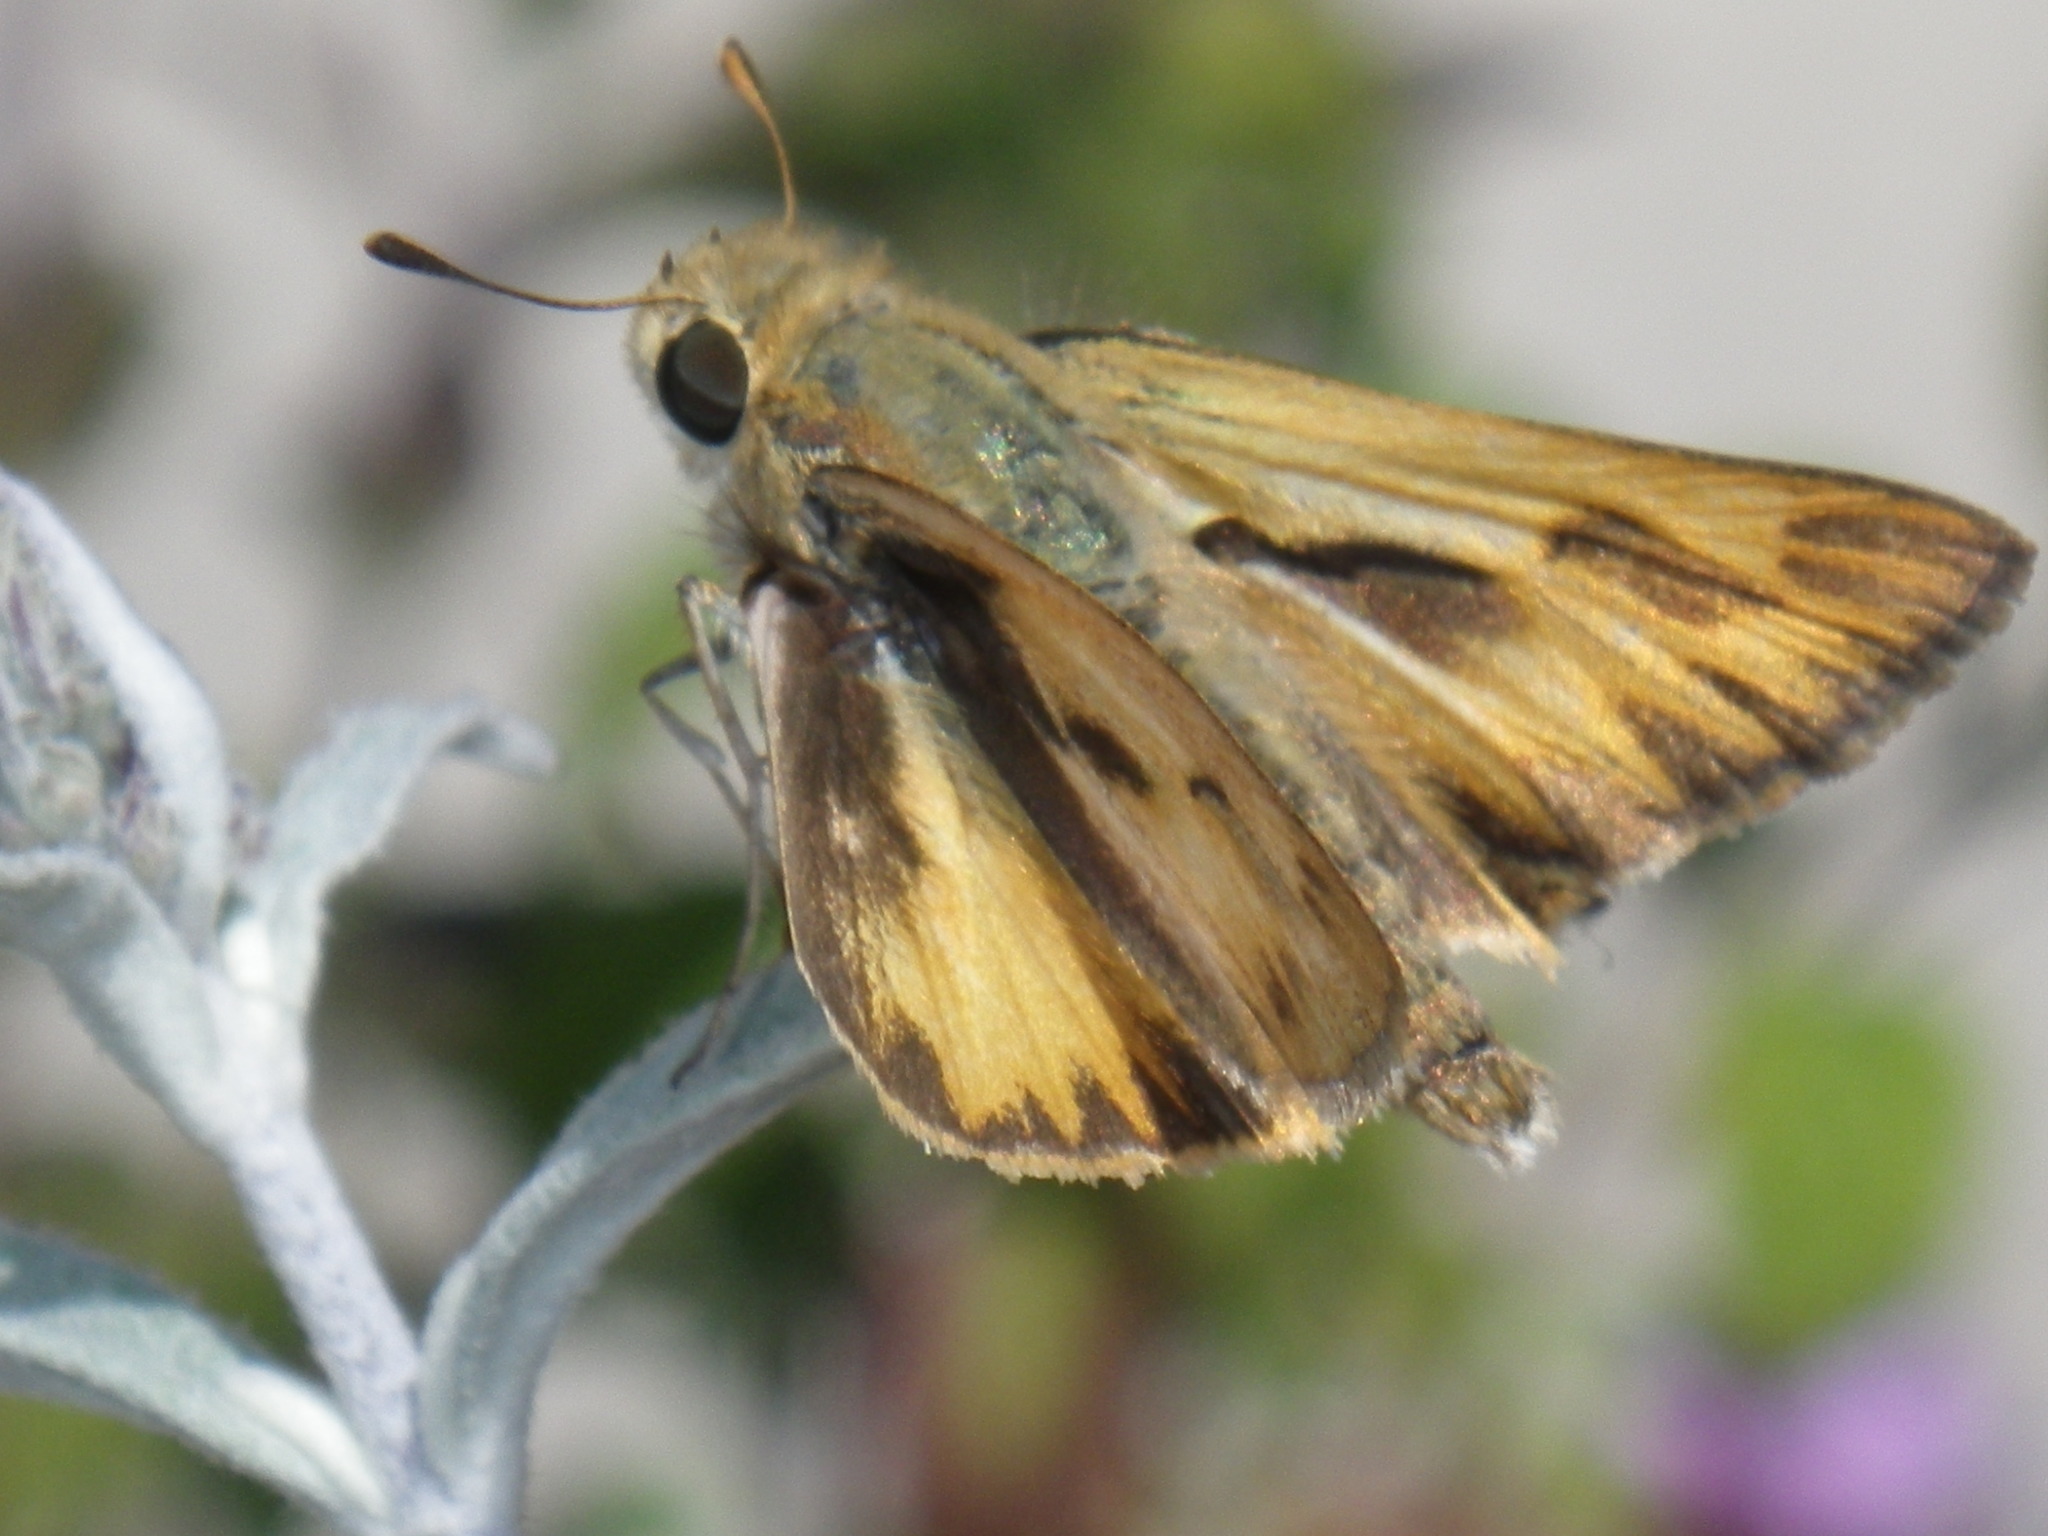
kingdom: Animalia
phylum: Arthropoda
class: Insecta
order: Lepidoptera
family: Hesperiidae
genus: Hylephila
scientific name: Hylephila phyleus
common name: Fiery skipper
